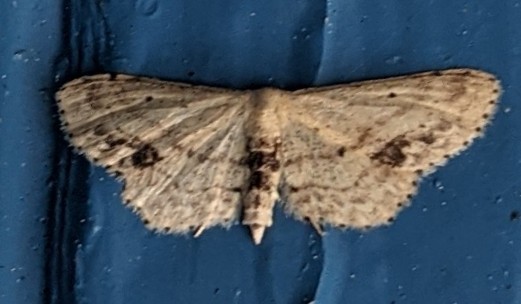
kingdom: Animalia
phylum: Arthropoda
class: Insecta
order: Lepidoptera
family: Geometridae
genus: Idaea
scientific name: Idaea dimidiata
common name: Single-dotted wave
